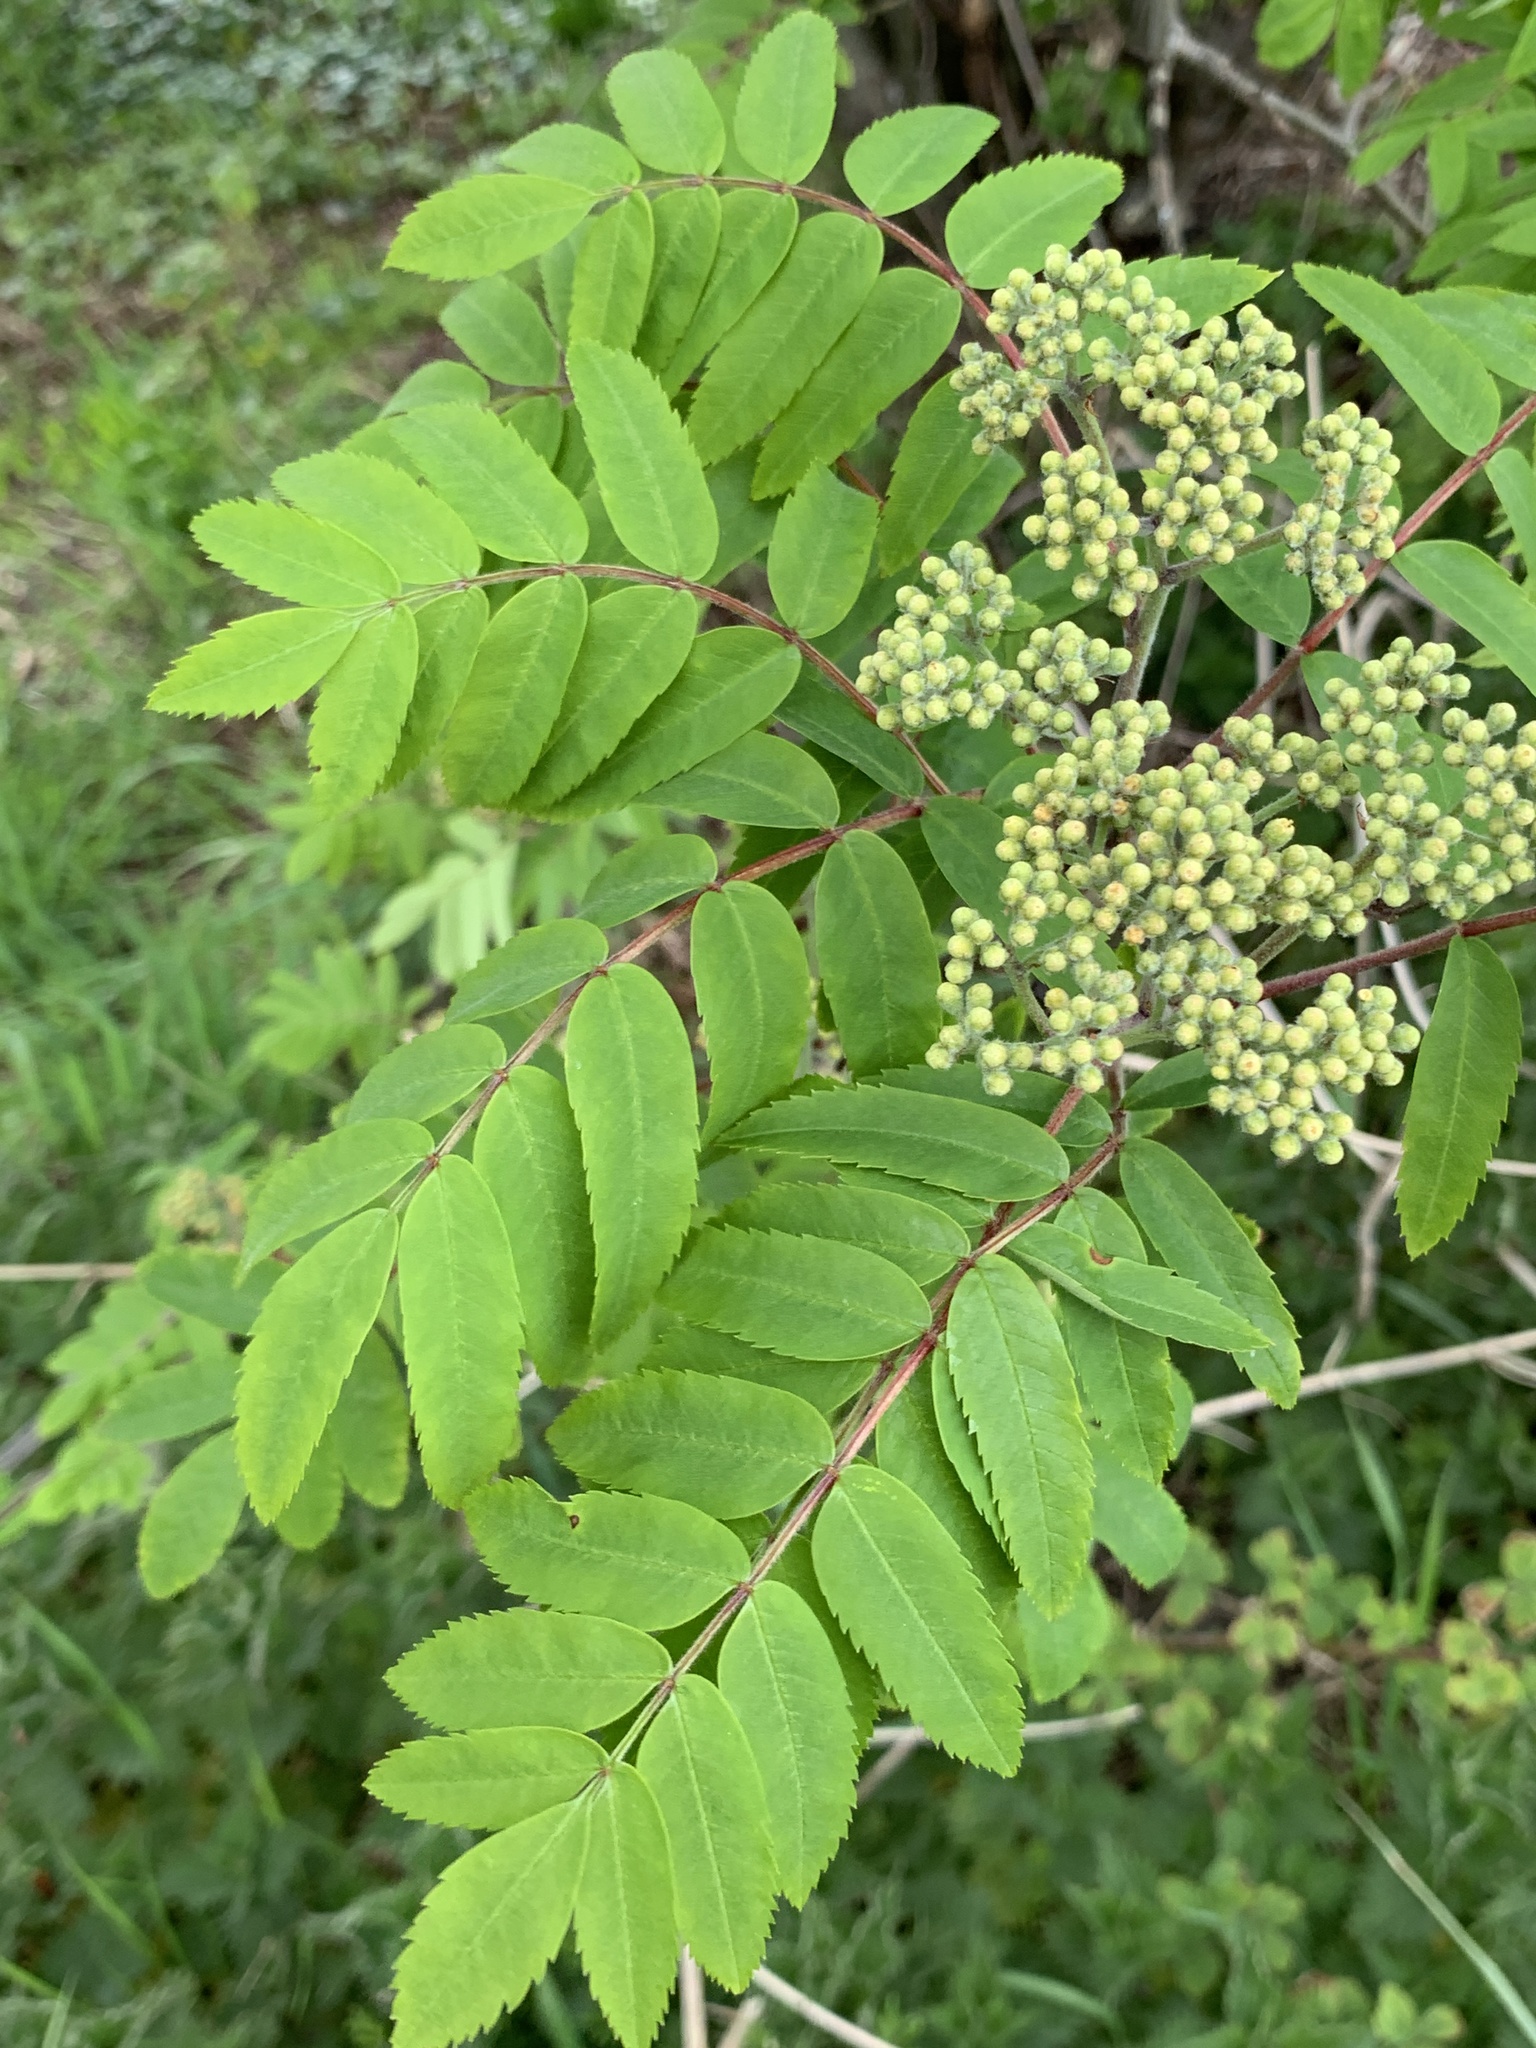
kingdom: Plantae
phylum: Tracheophyta
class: Magnoliopsida
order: Rosales
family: Rosaceae
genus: Sorbus
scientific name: Sorbus aucuparia
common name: Rowan
